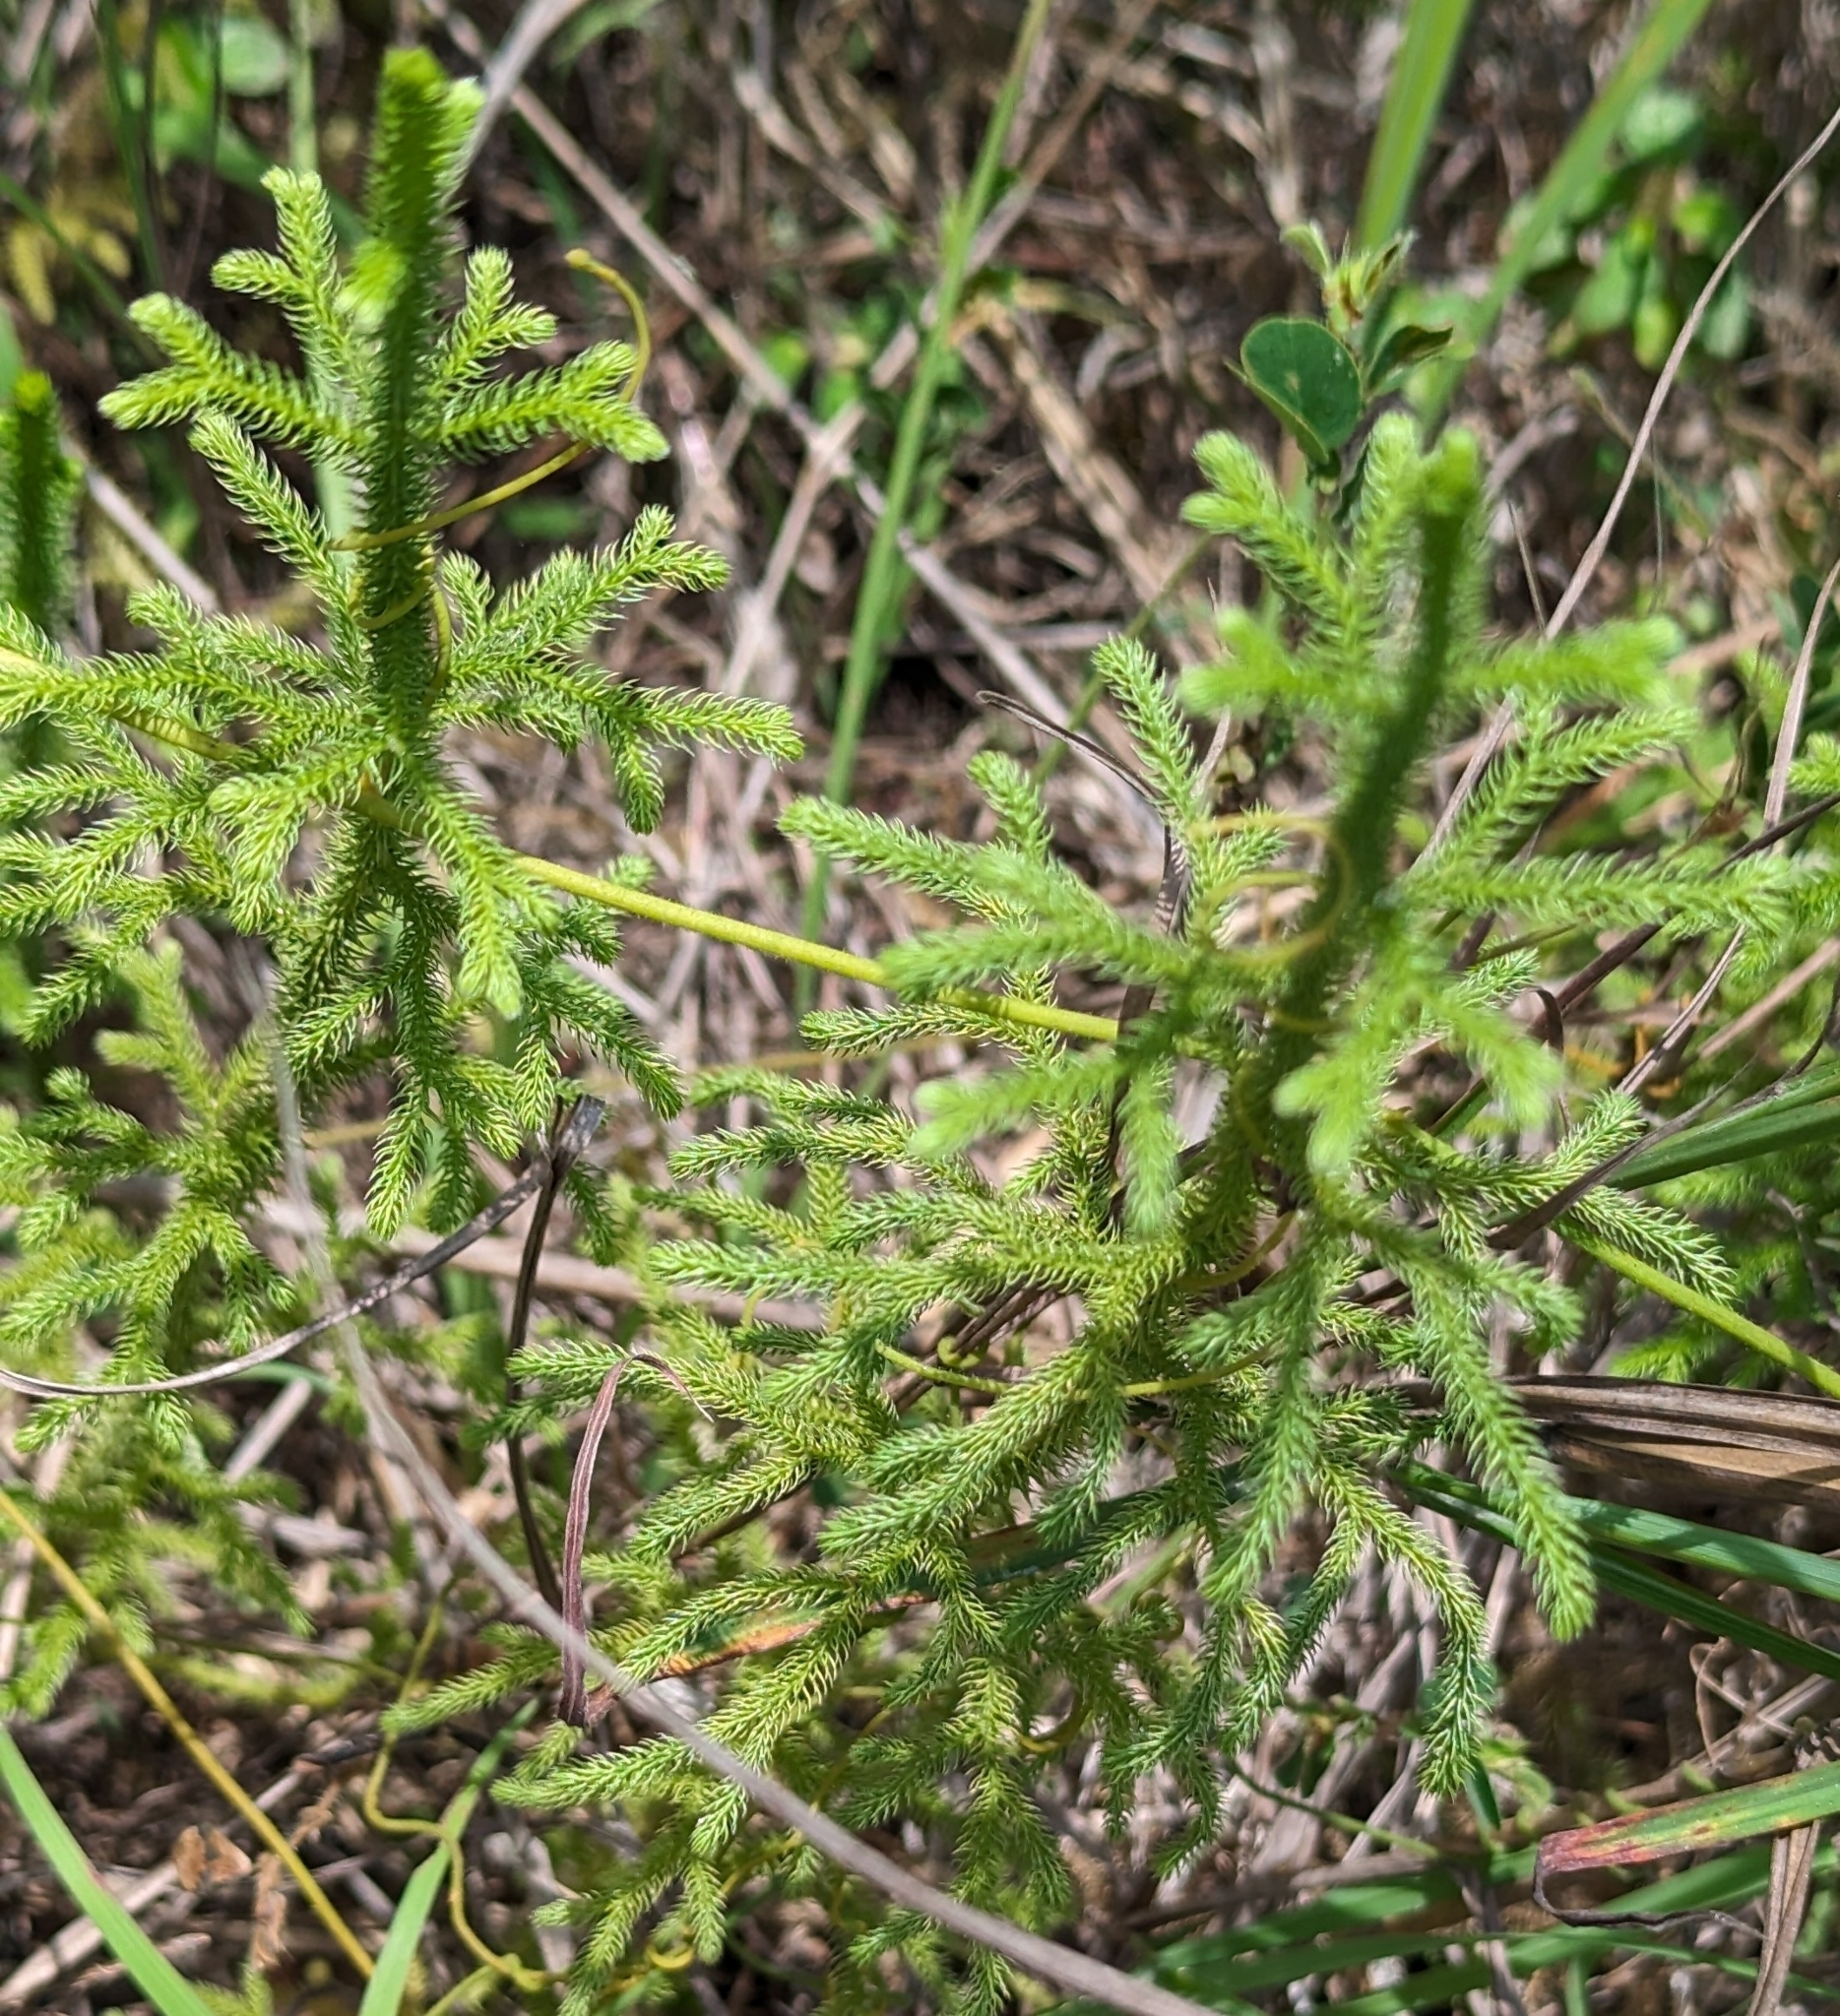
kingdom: Plantae
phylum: Tracheophyta
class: Lycopodiopsida
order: Lycopodiales
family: Lycopodiaceae
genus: Palhinhaea
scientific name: Palhinhaea cernua
